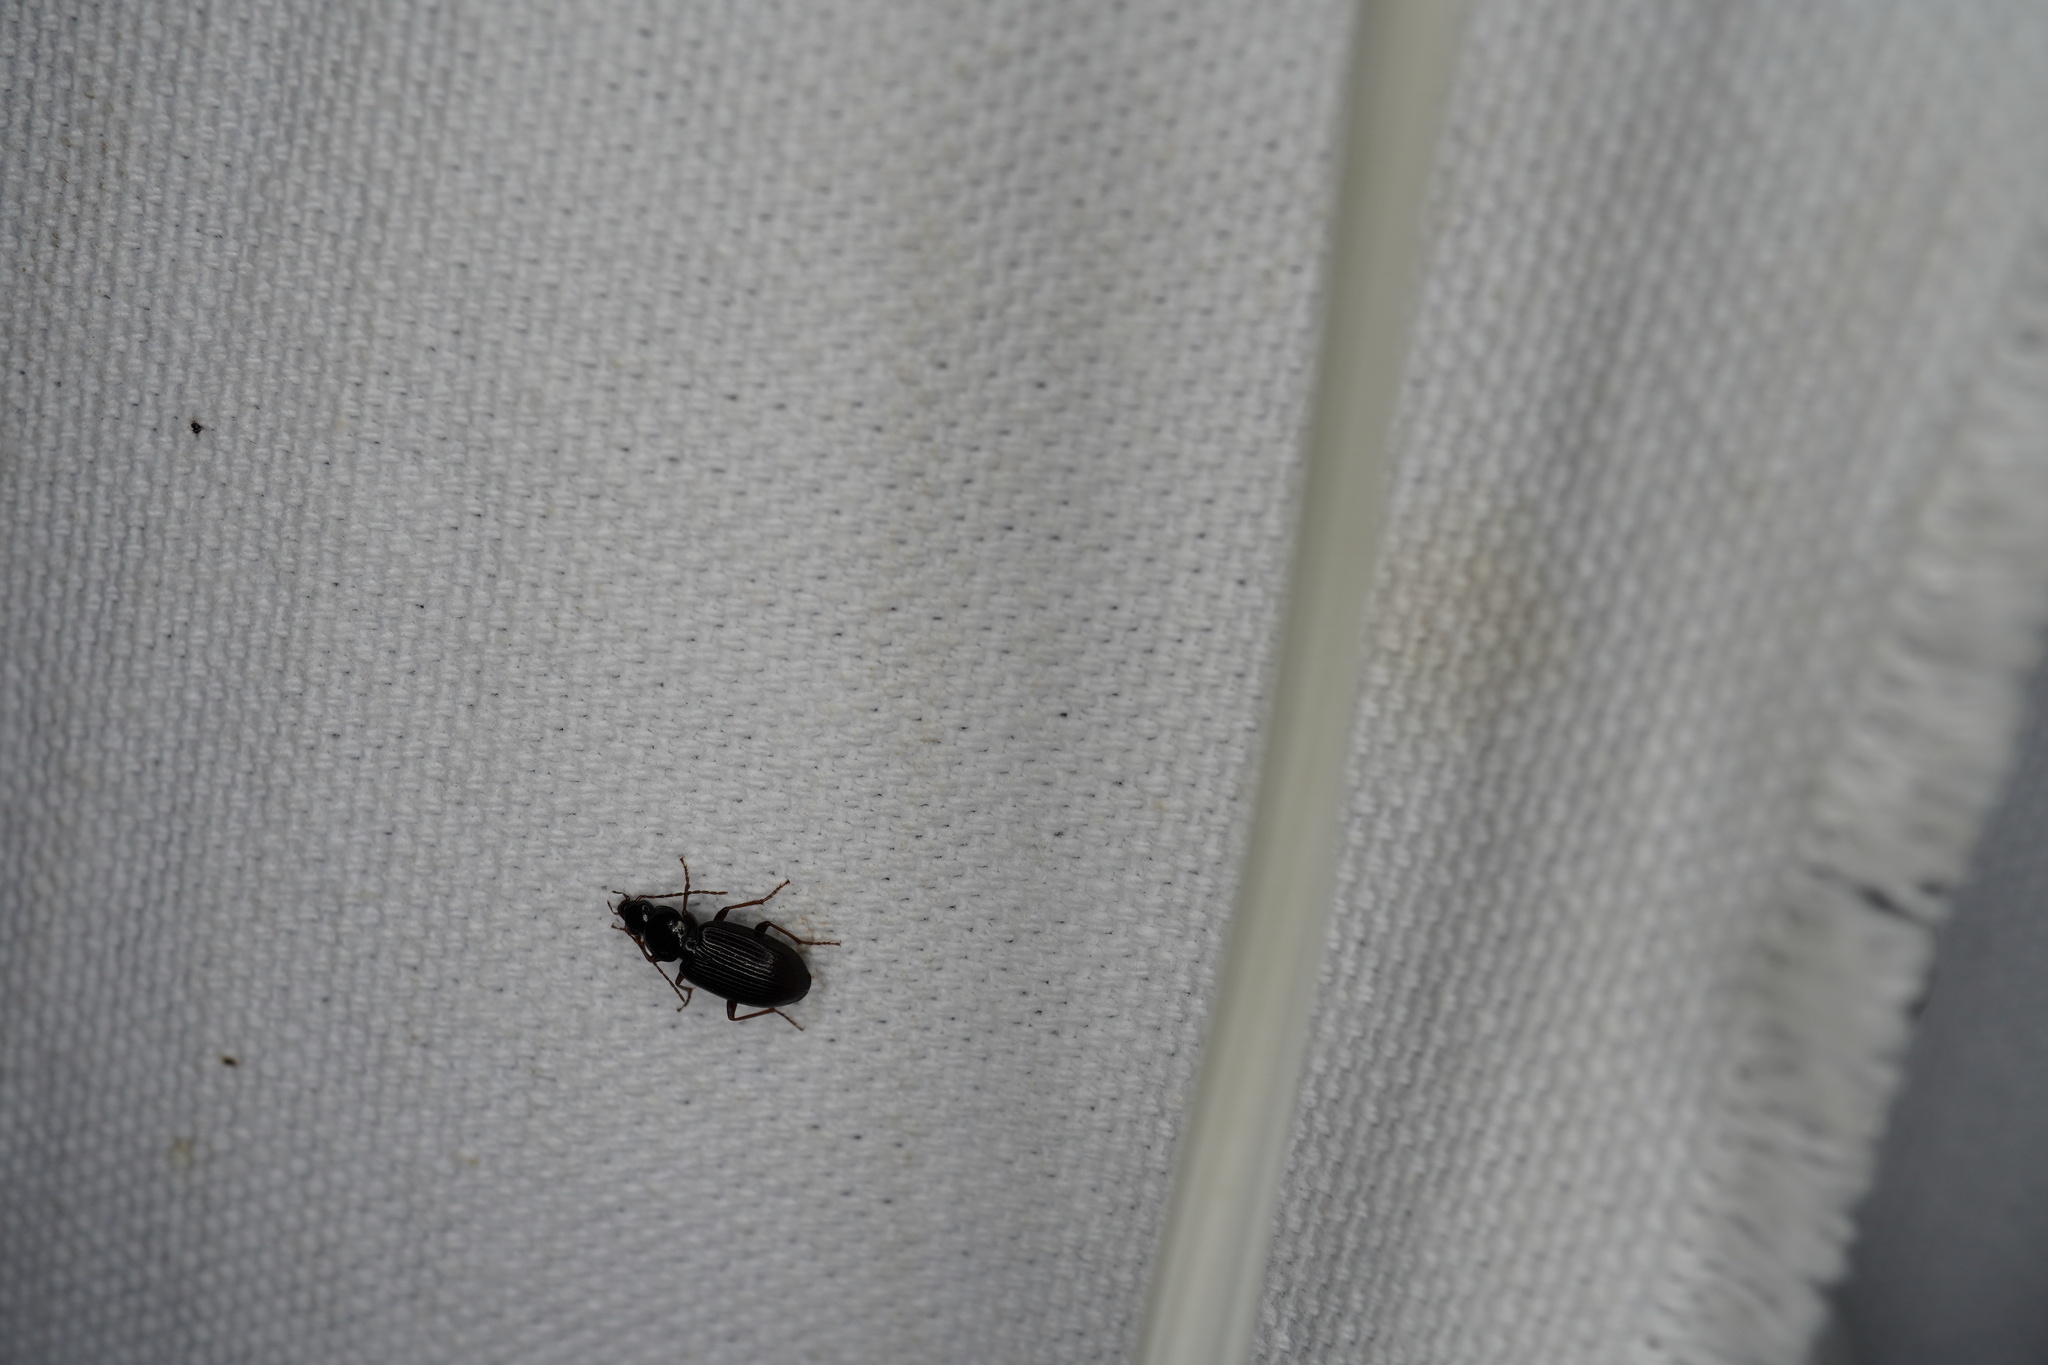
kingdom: Animalia
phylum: Arthropoda
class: Insecta
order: Coleoptera
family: Carabidae
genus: Agonum
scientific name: Agonum punctiforme
